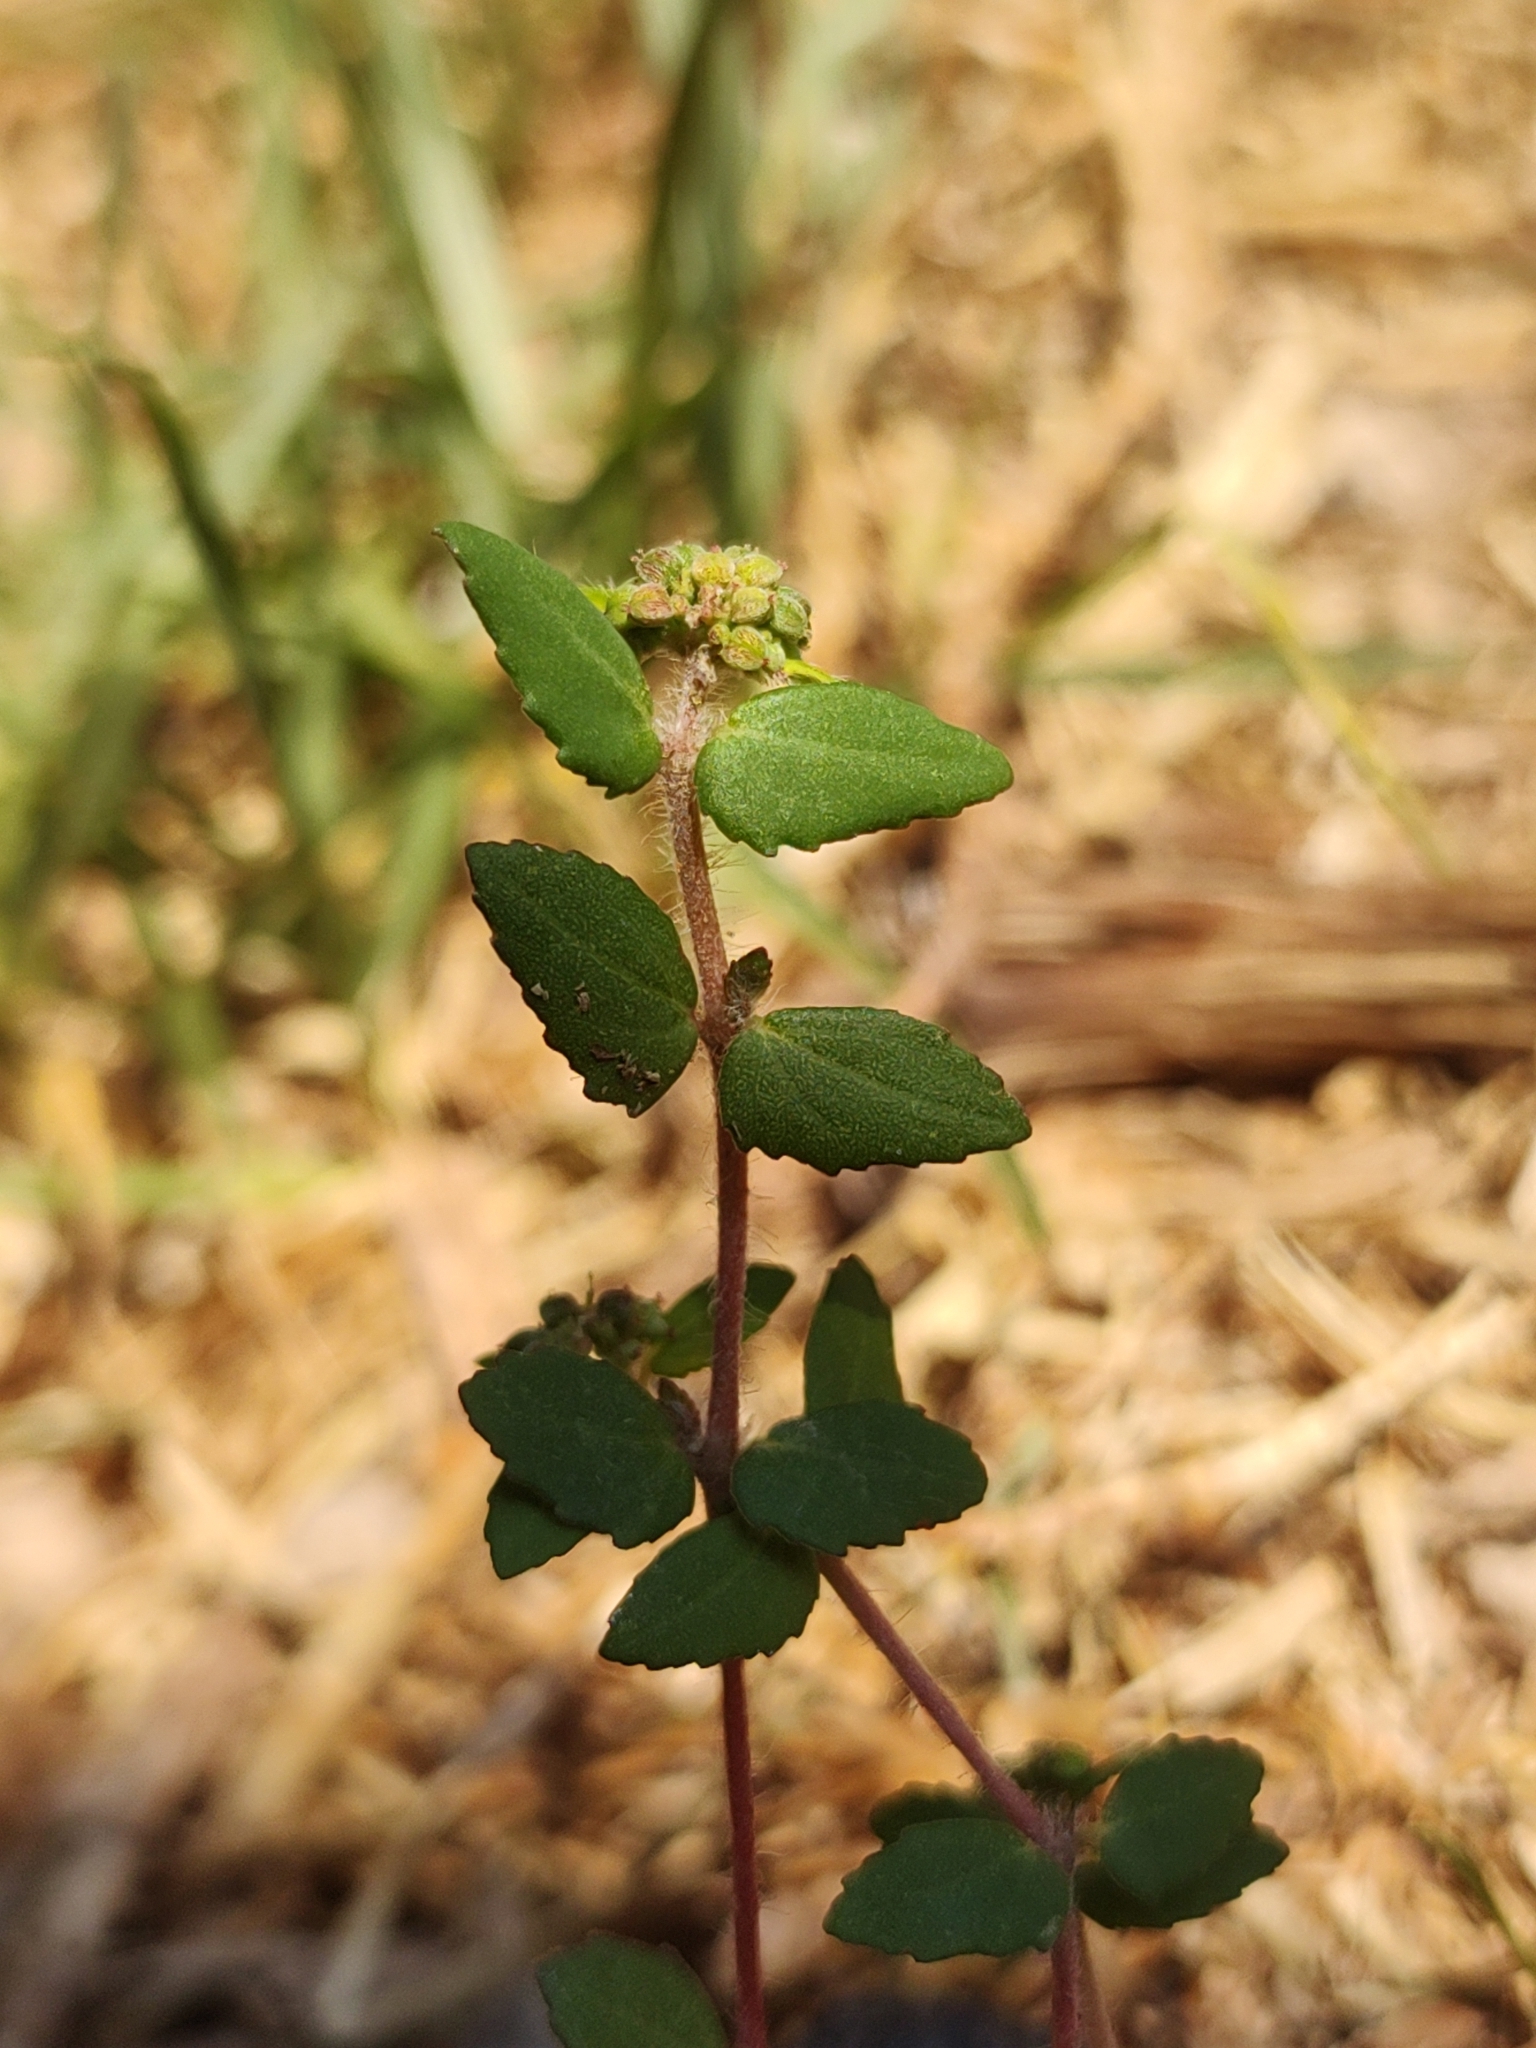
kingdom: Plantae
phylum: Tracheophyta
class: Magnoliopsida
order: Malpighiales
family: Euphorbiaceae
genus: Euphorbia
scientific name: Euphorbia ophthalmica
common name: Florida hammock sandmat
